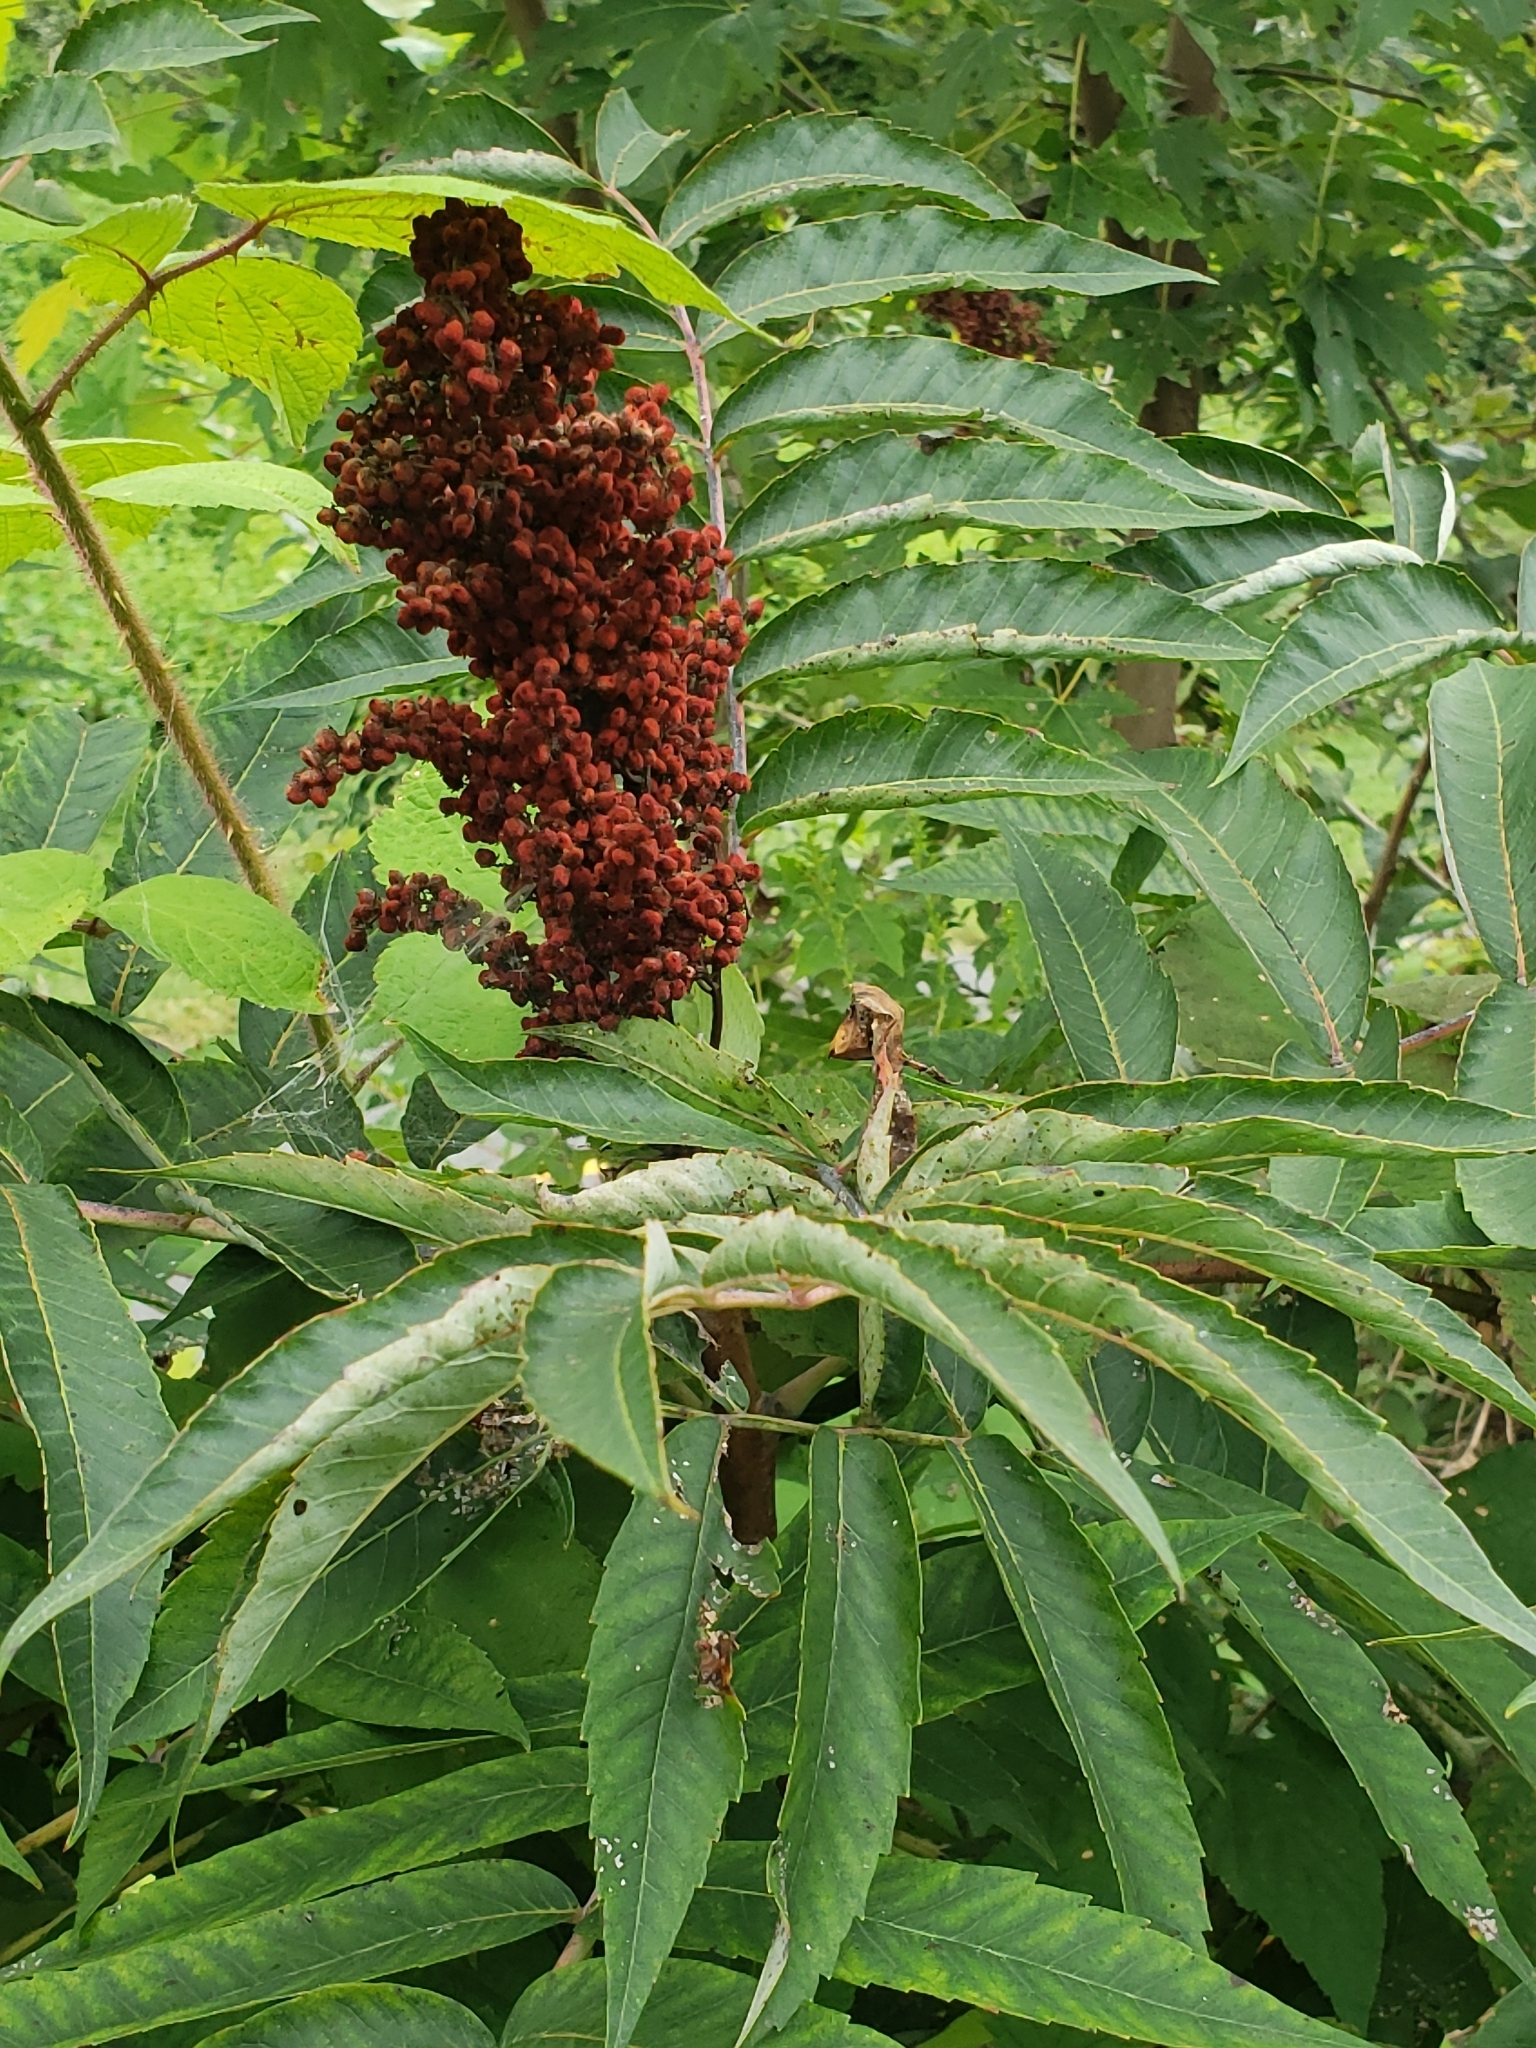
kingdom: Plantae
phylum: Tracheophyta
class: Magnoliopsida
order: Sapindales
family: Anacardiaceae
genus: Rhus
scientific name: Rhus glabra
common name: Scarlet sumac
